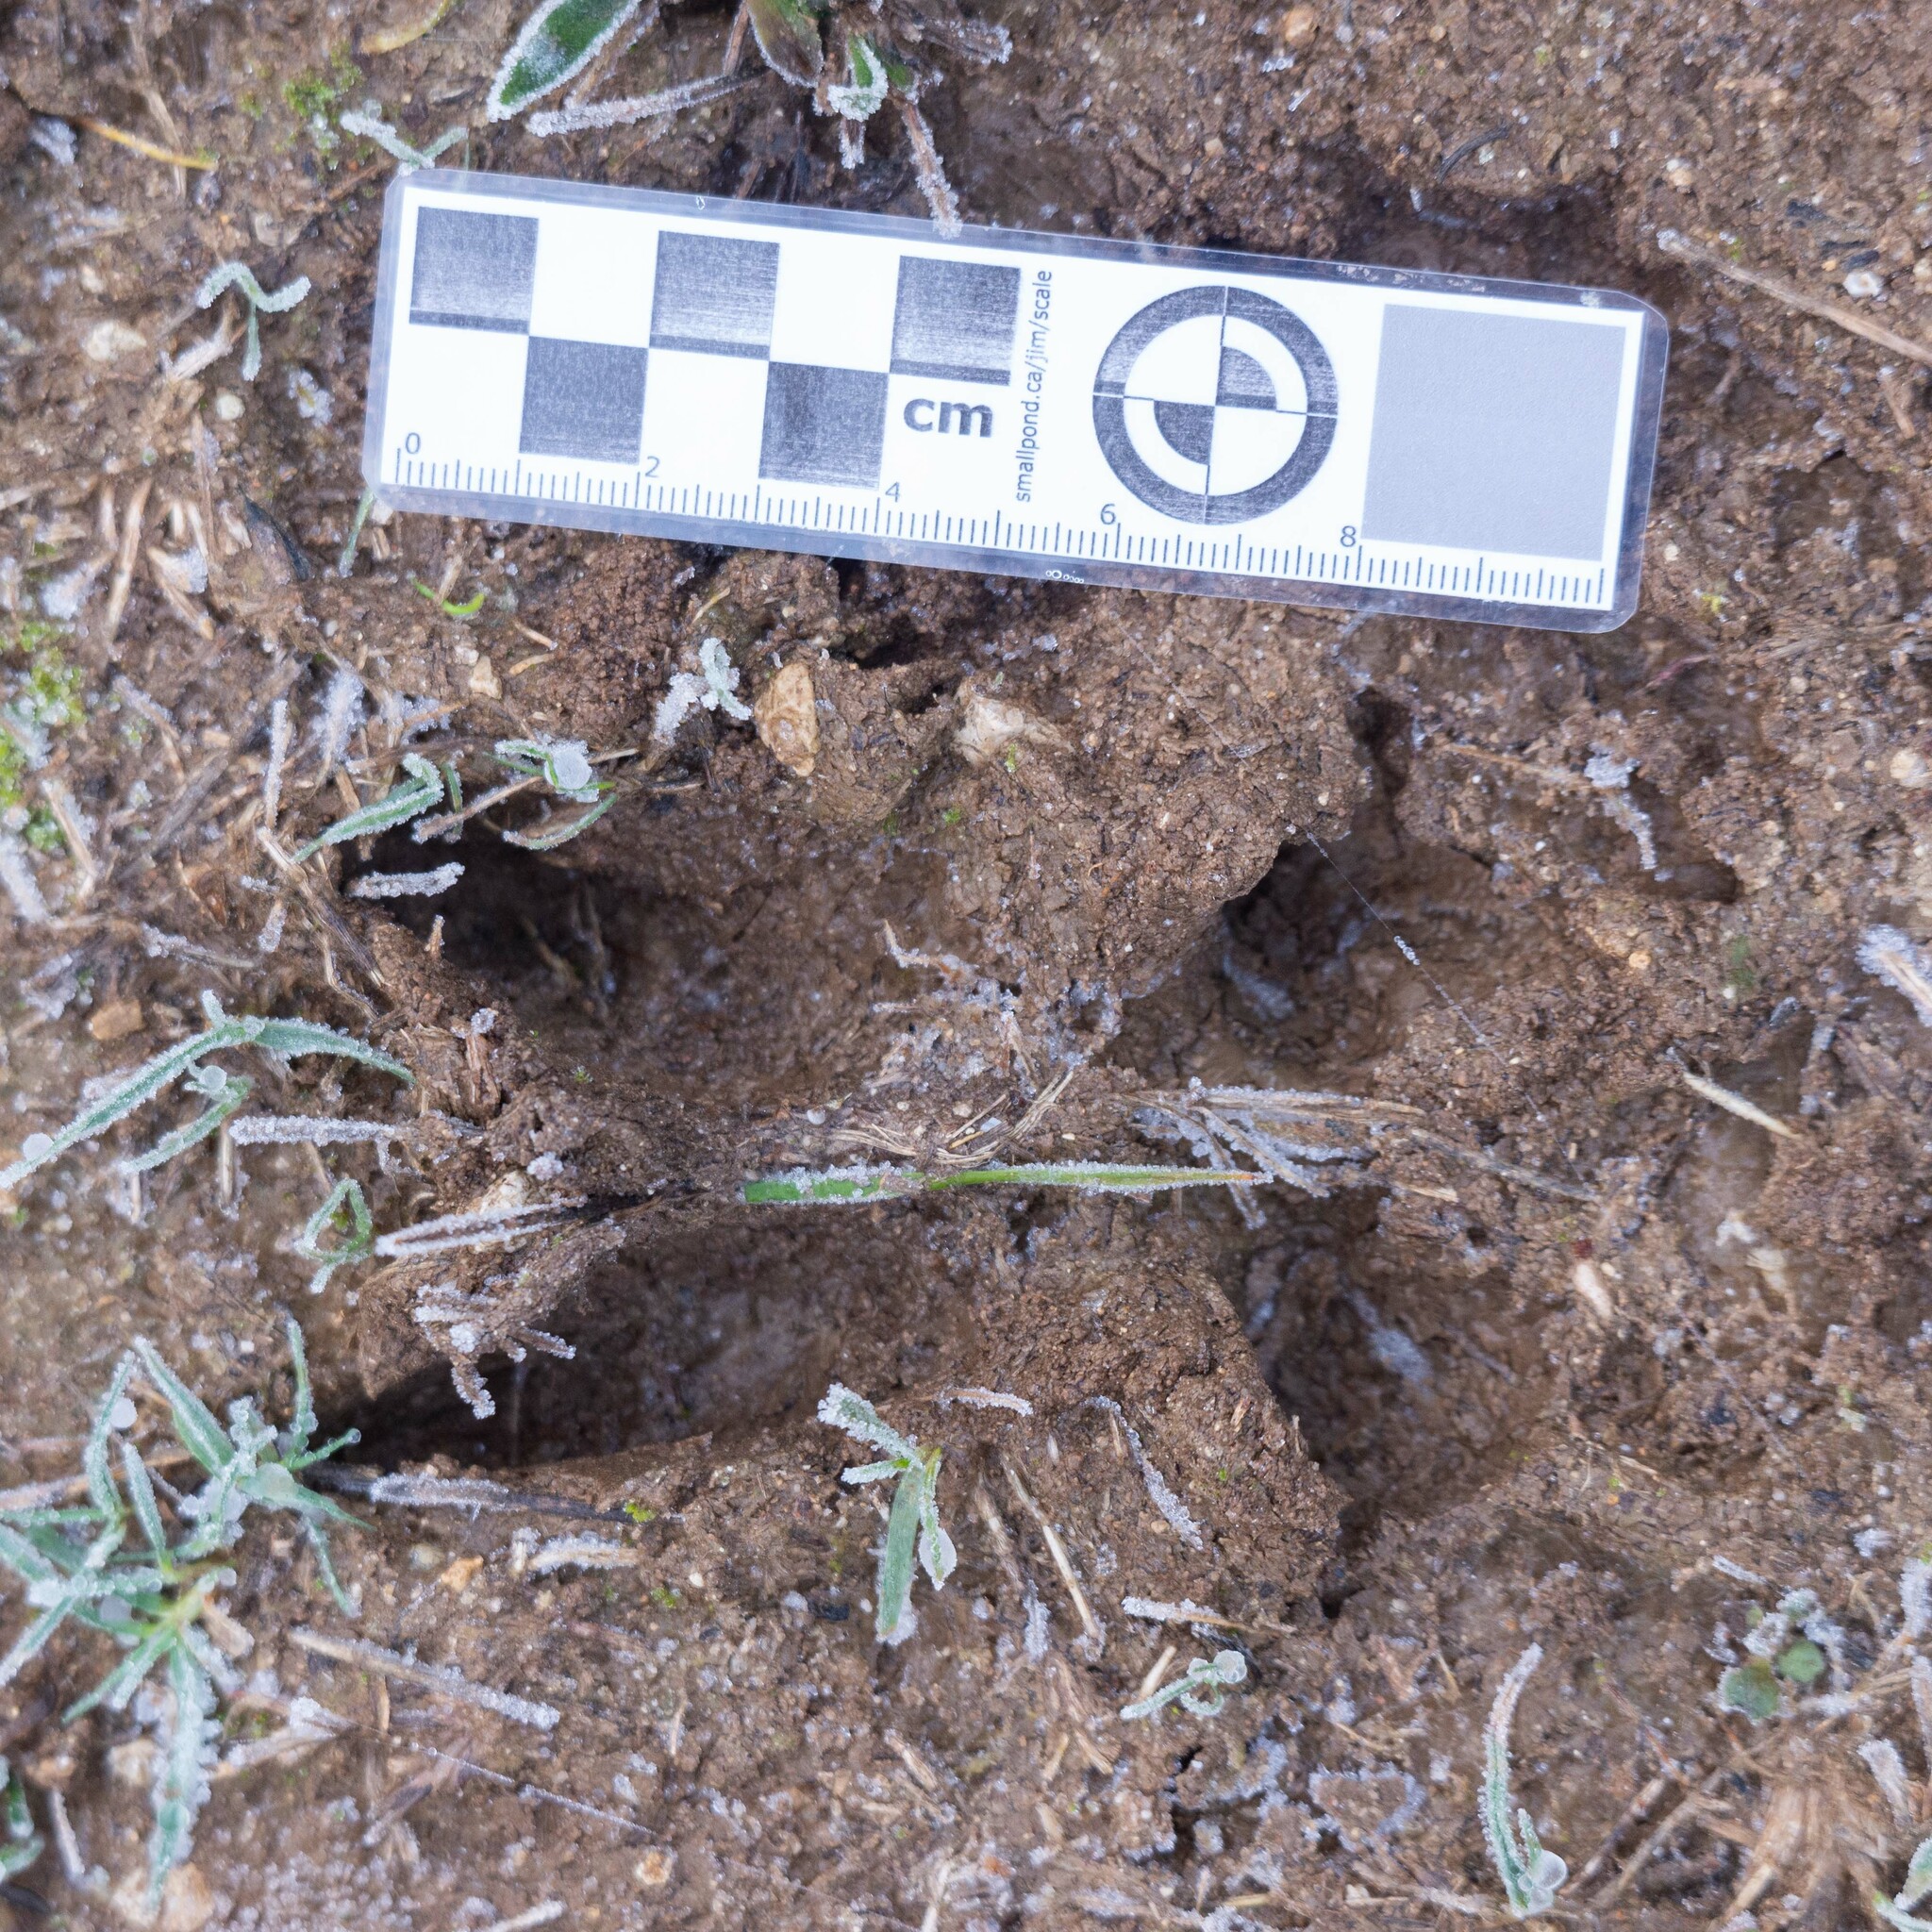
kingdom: Animalia
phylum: Chordata
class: Mammalia
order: Artiodactyla
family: Cervidae
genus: Capreolus
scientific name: Capreolus capreolus
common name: Western roe deer
